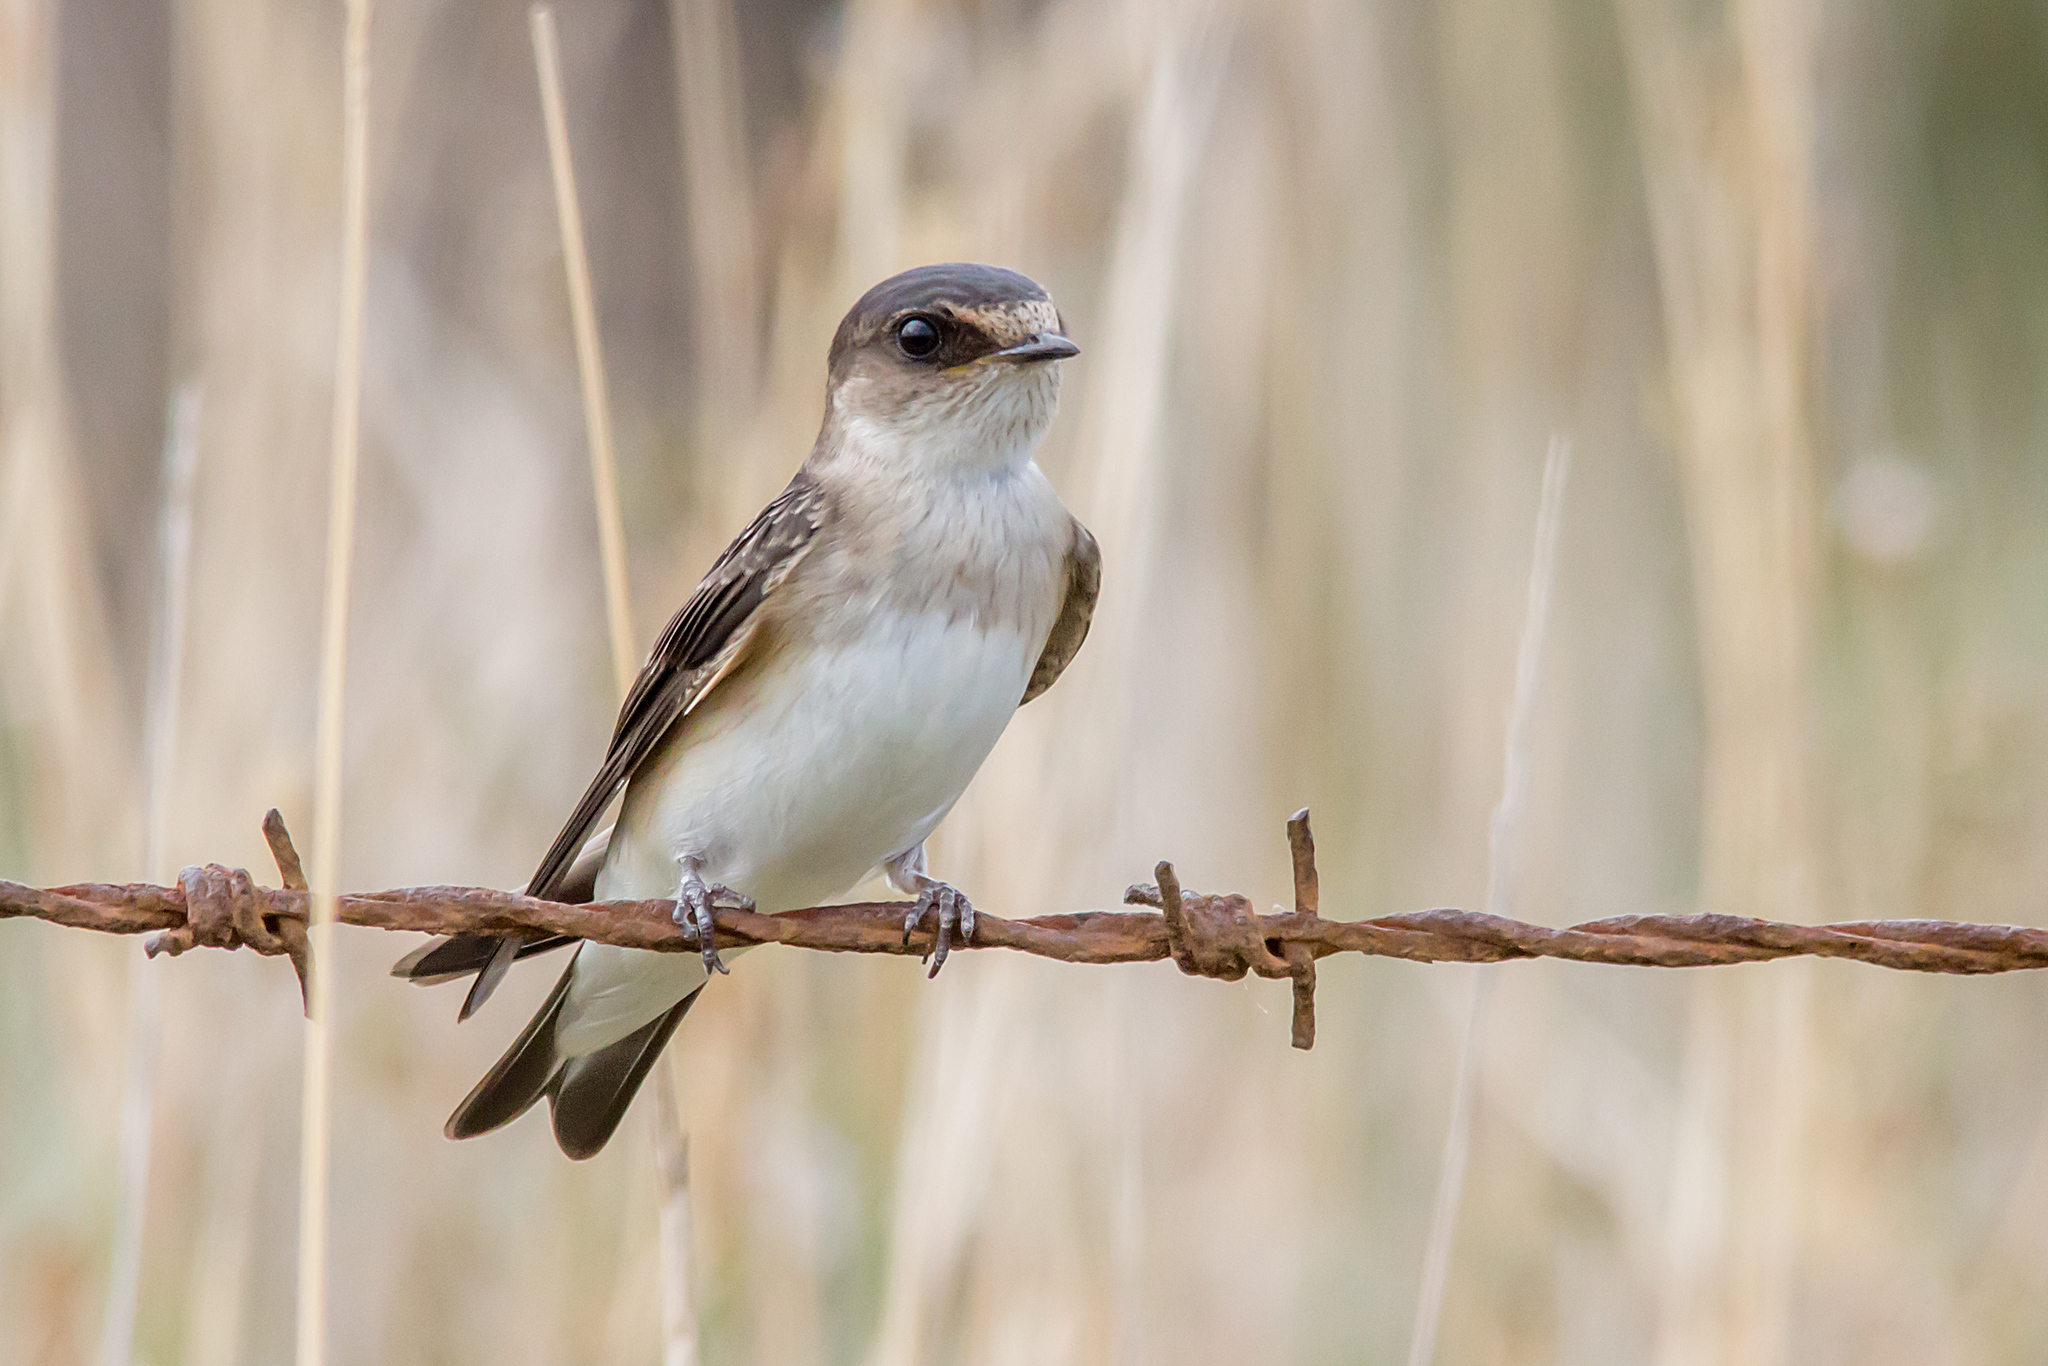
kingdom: Animalia
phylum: Chordata
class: Aves
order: Passeriformes
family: Hirundinidae
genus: Petrochelidon
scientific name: Petrochelidon nigricans
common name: Tree martin
